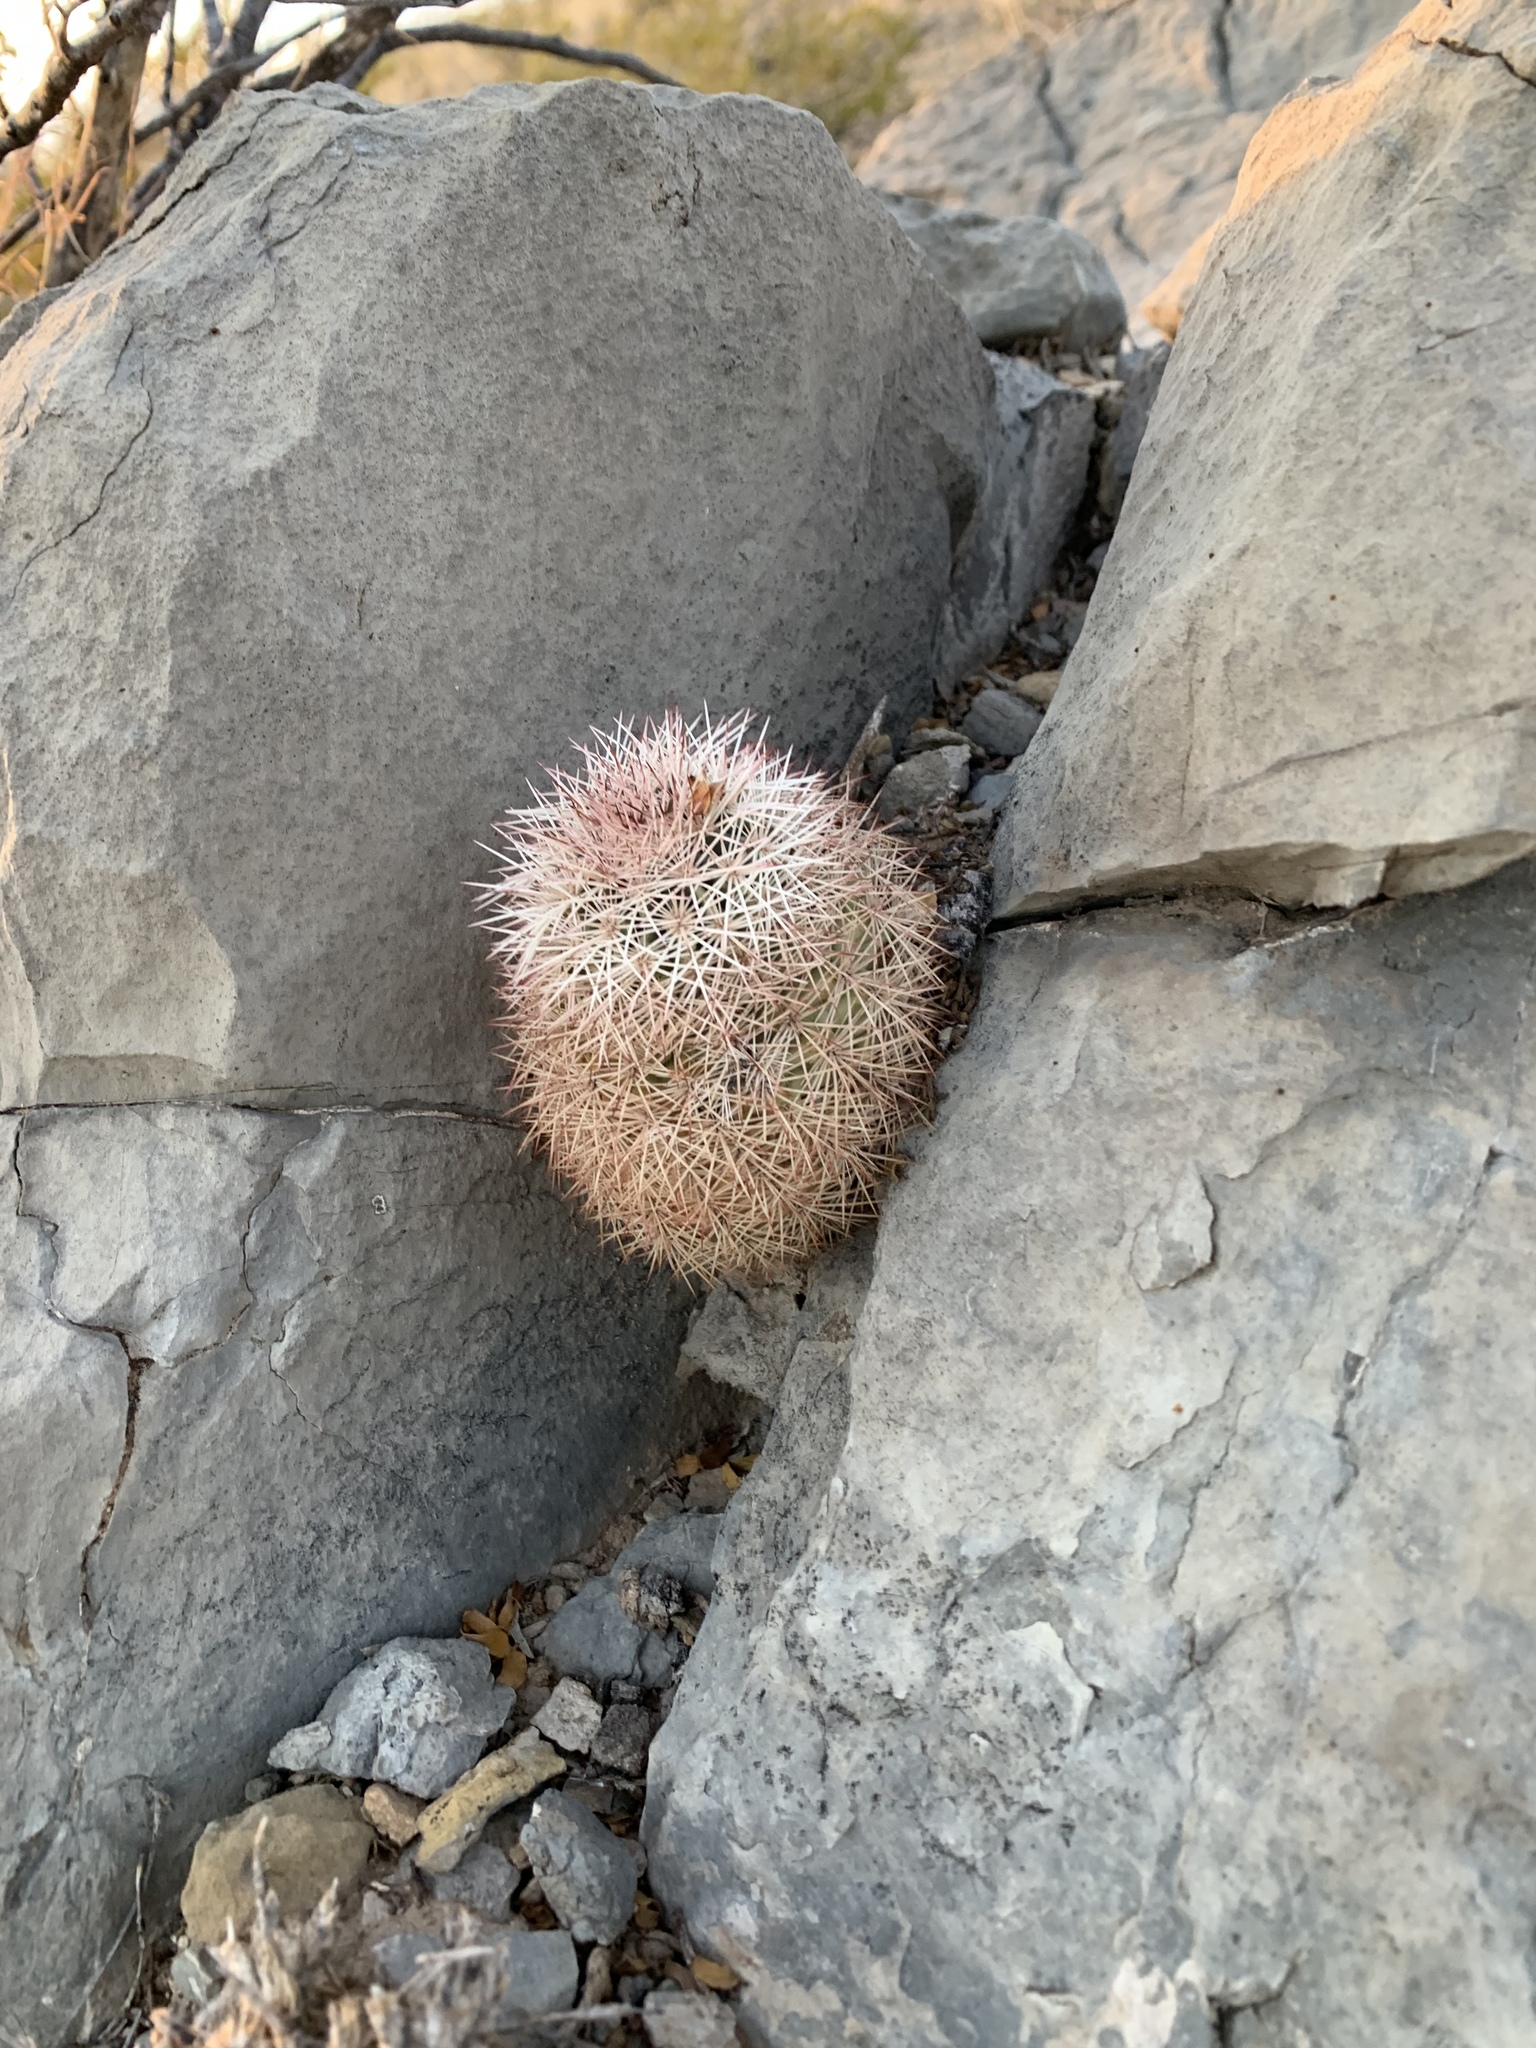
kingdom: Plantae
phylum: Tracheophyta
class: Magnoliopsida
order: Caryophyllales
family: Cactaceae
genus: Echinocereus
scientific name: Echinocereus dasyacanthus
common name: Spiny hedgehog cactus
